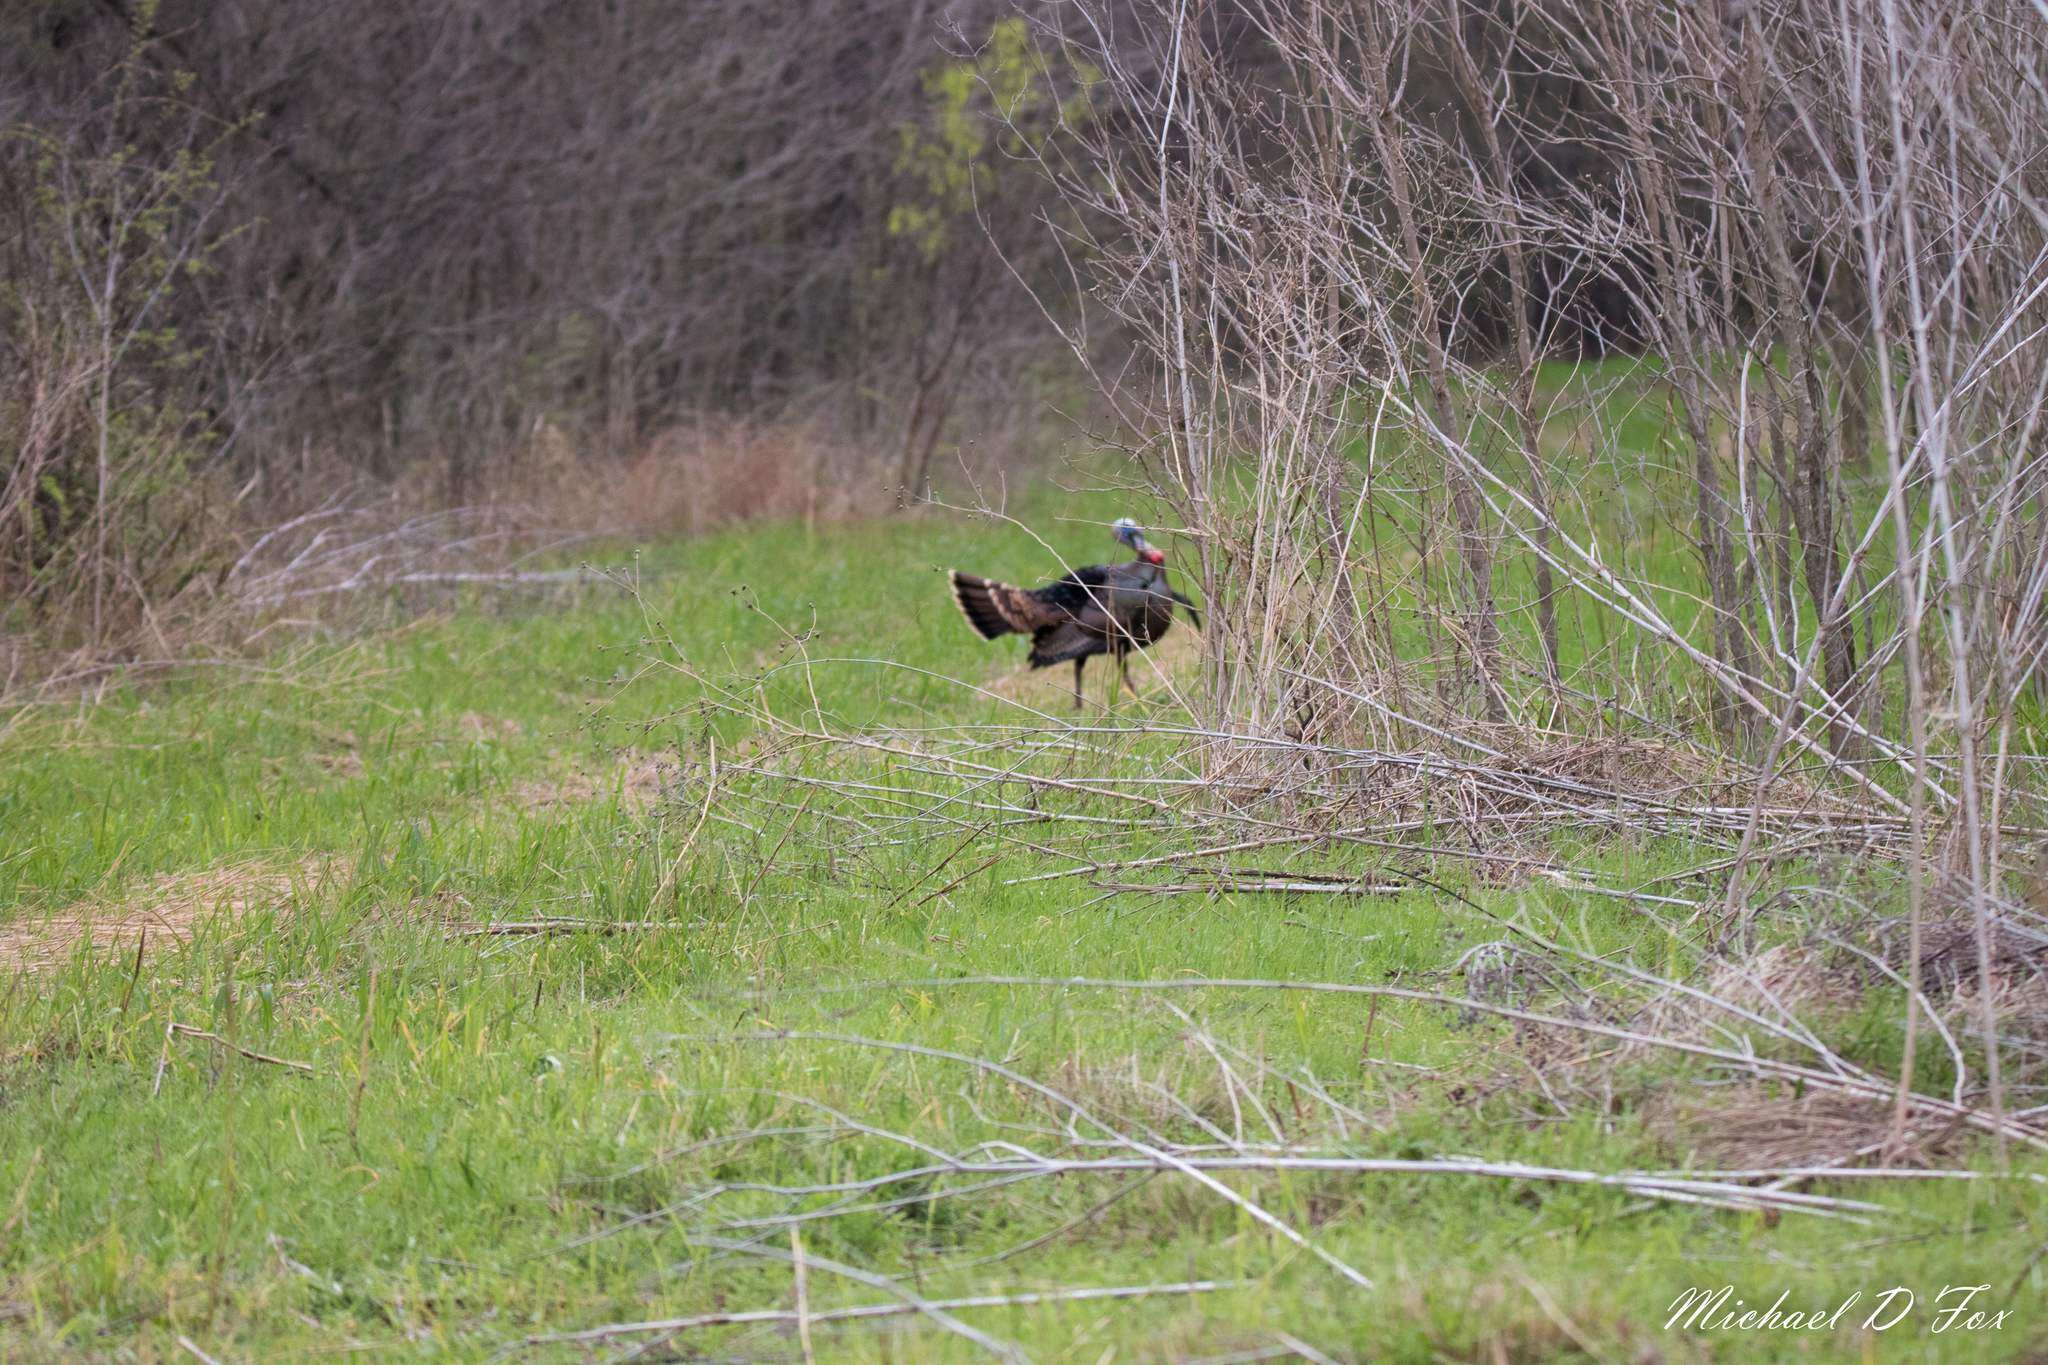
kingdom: Animalia
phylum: Chordata
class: Aves
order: Galliformes
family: Phasianidae
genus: Meleagris
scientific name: Meleagris gallopavo
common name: Wild turkey
